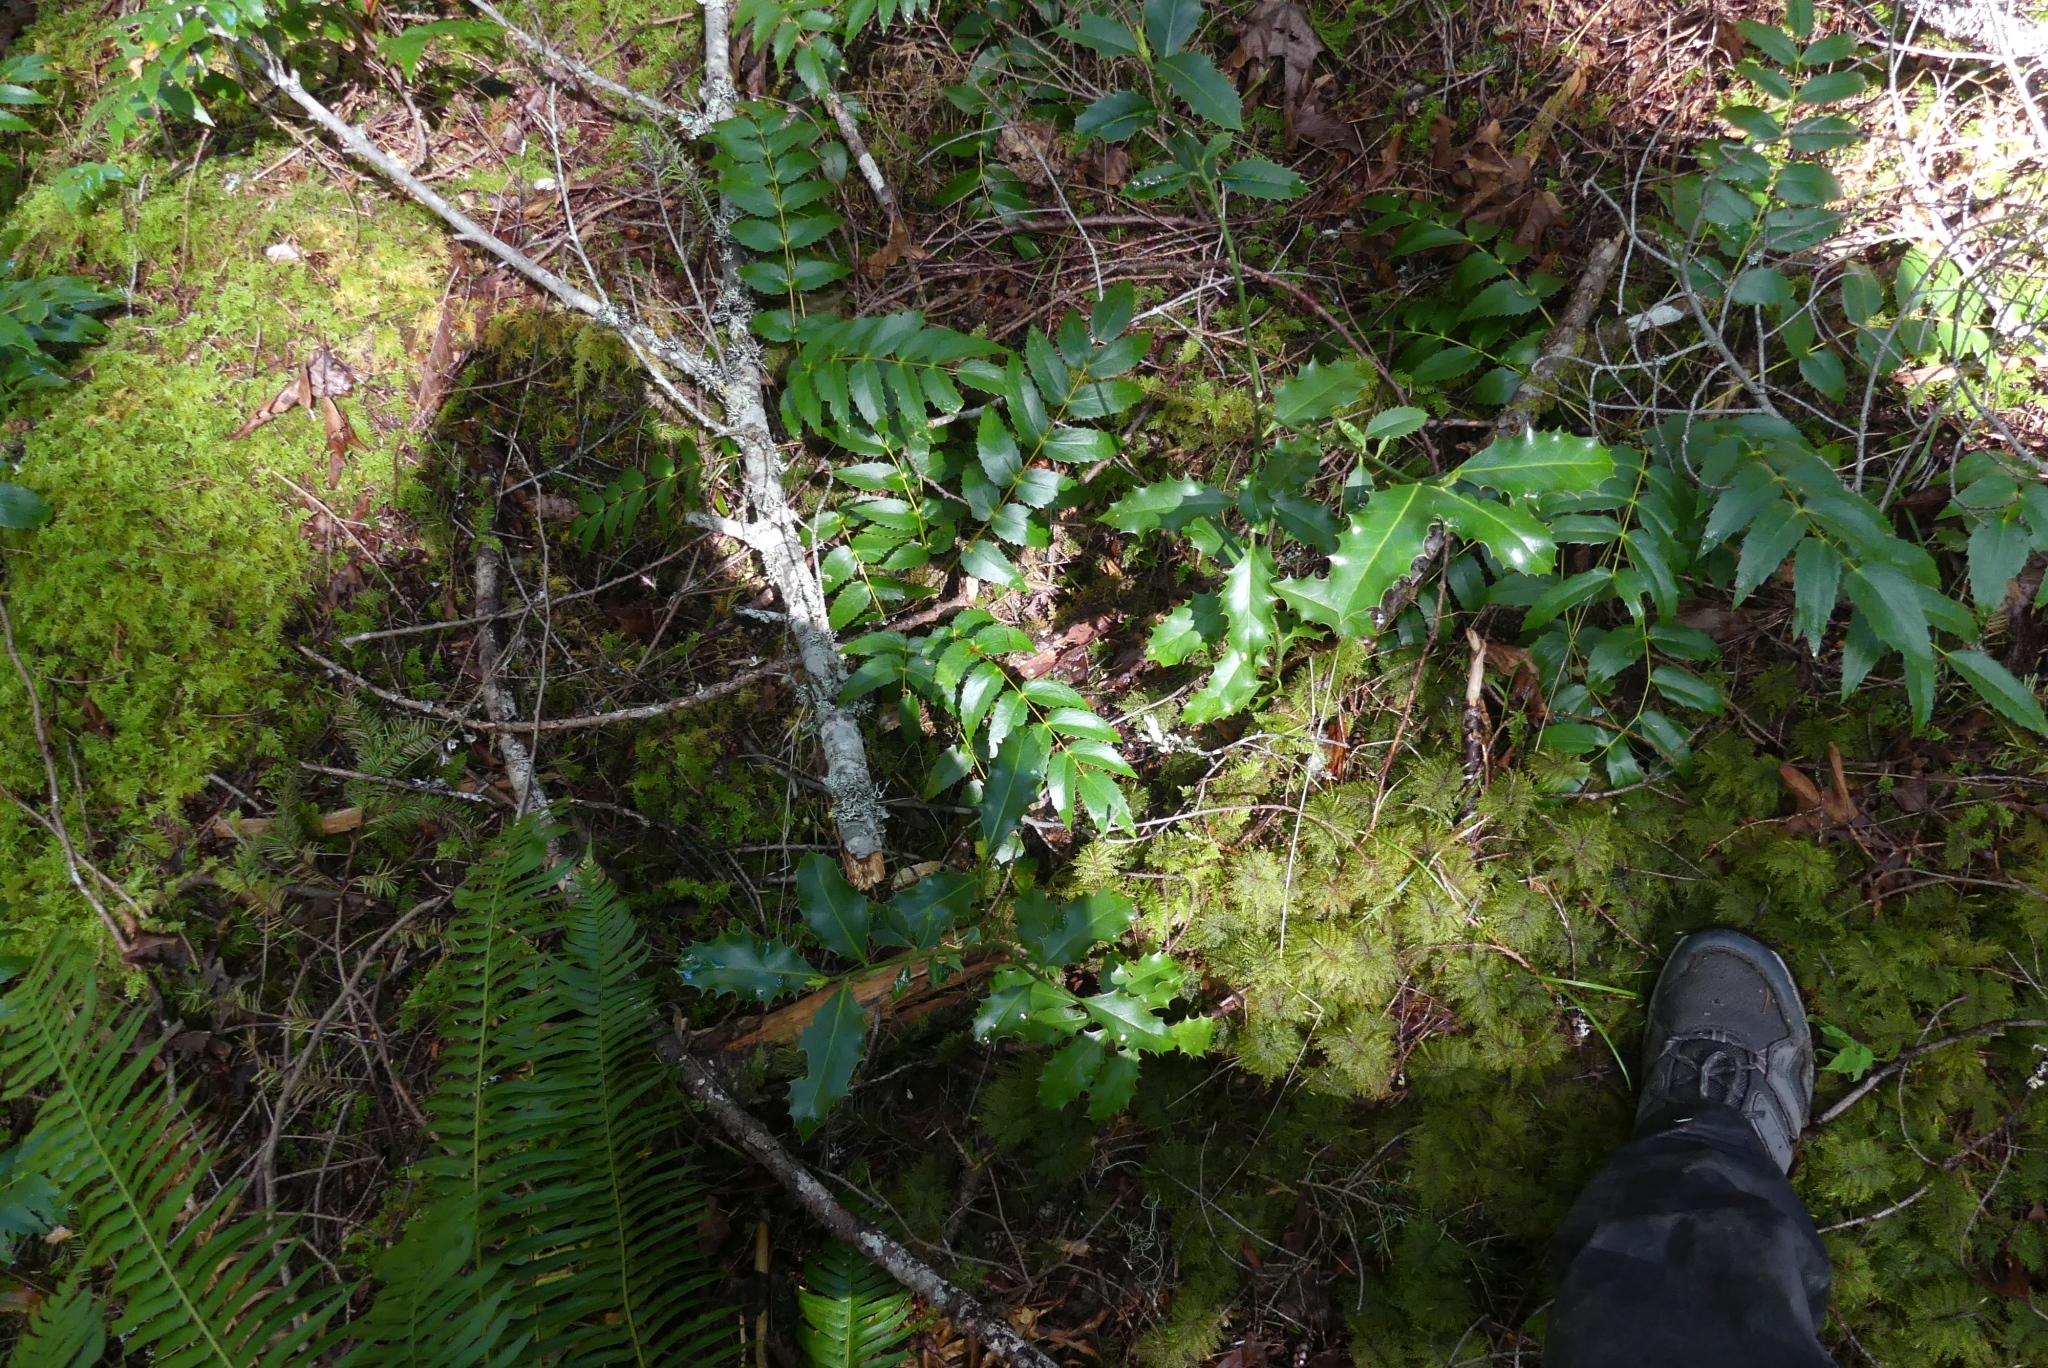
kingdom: Plantae
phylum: Tracheophyta
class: Magnoliopsida
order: Aquifoliales
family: Aquifoliaceae
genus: Ilex
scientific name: Ilex aquifolium
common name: English holly
